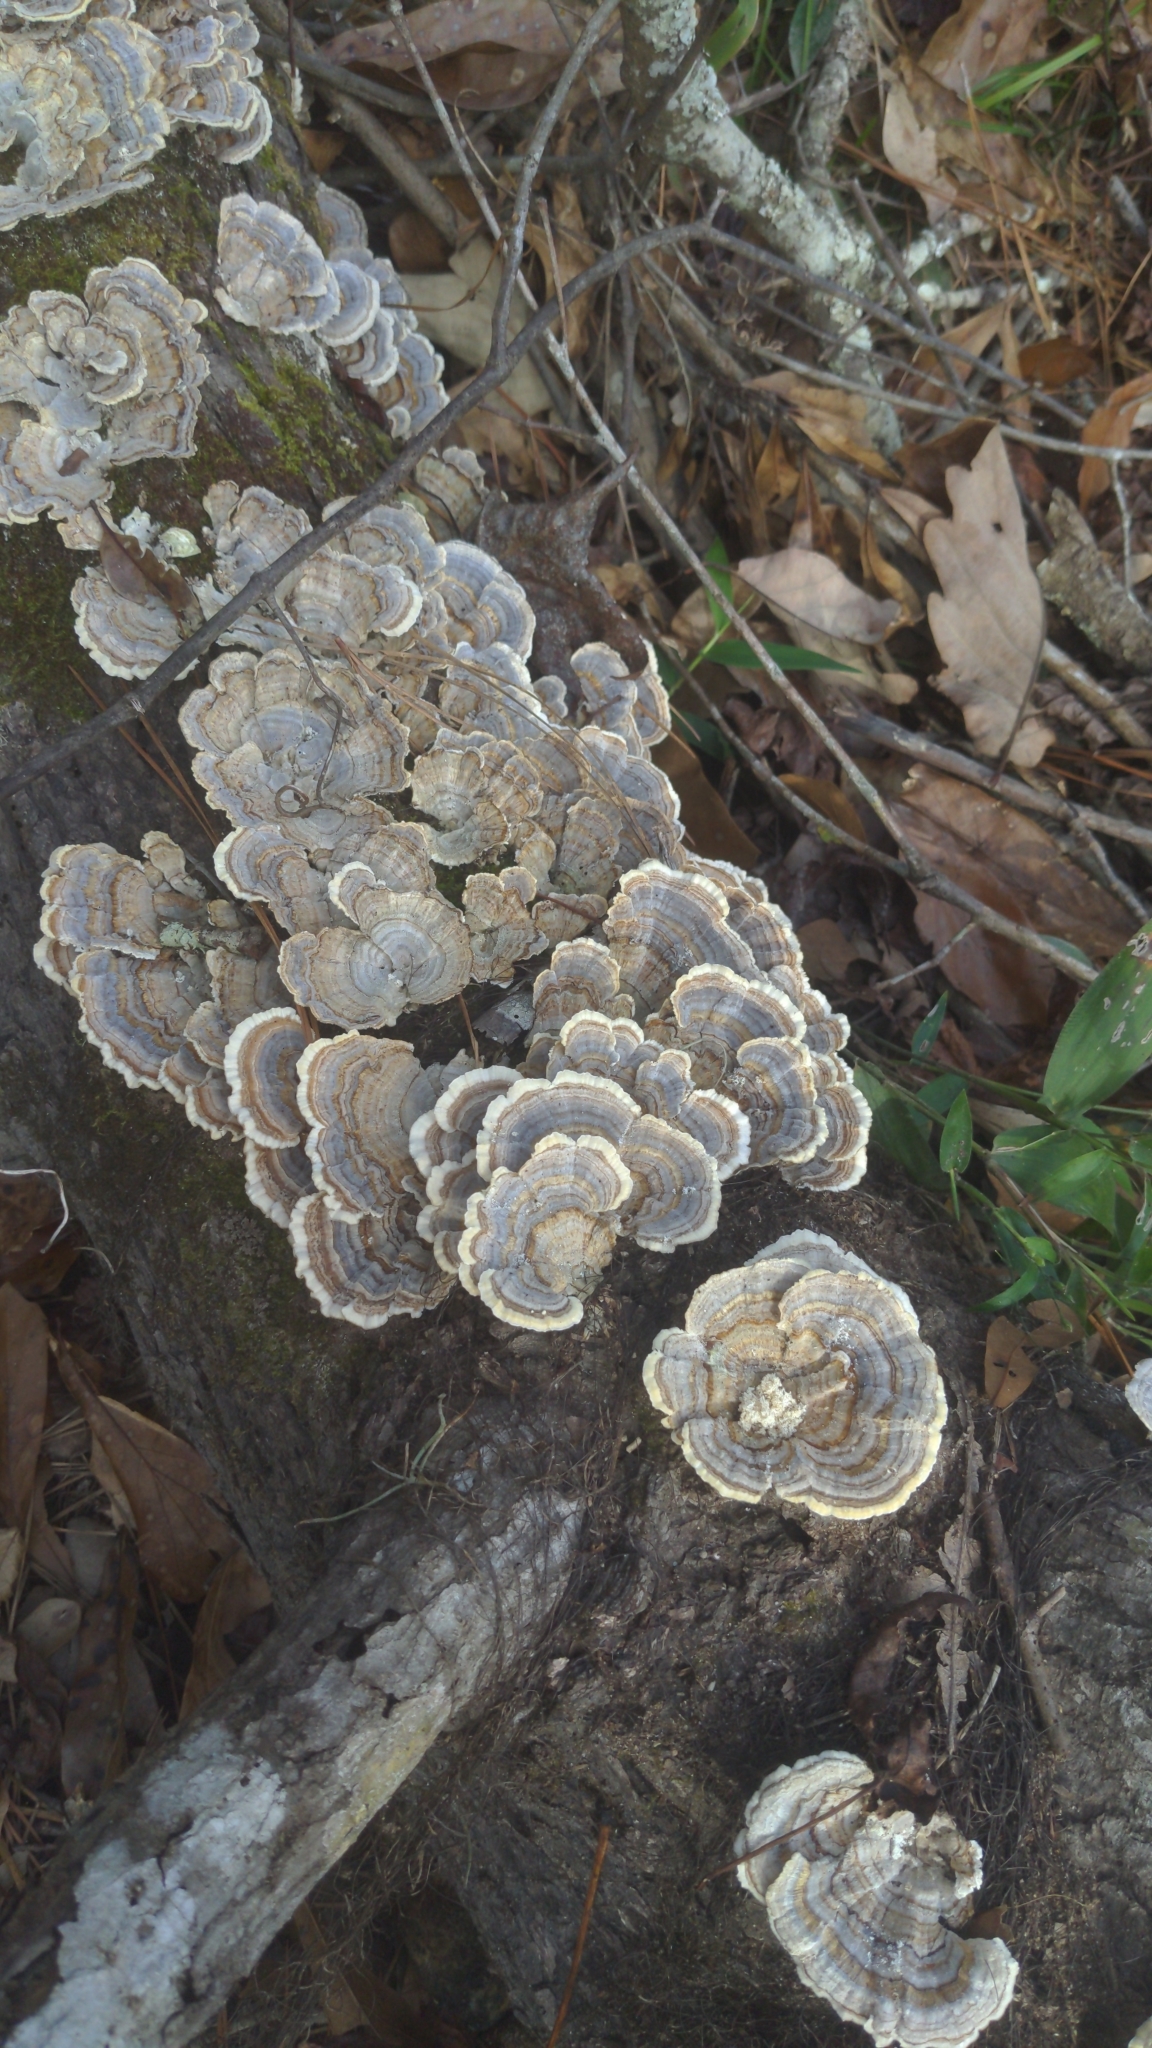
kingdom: Fungi
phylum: Basidiomycota
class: Agaricomycetes
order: Polyporales
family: Polyporaceae
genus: Trametes
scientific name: Trametes versicolor
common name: Turkeytail
